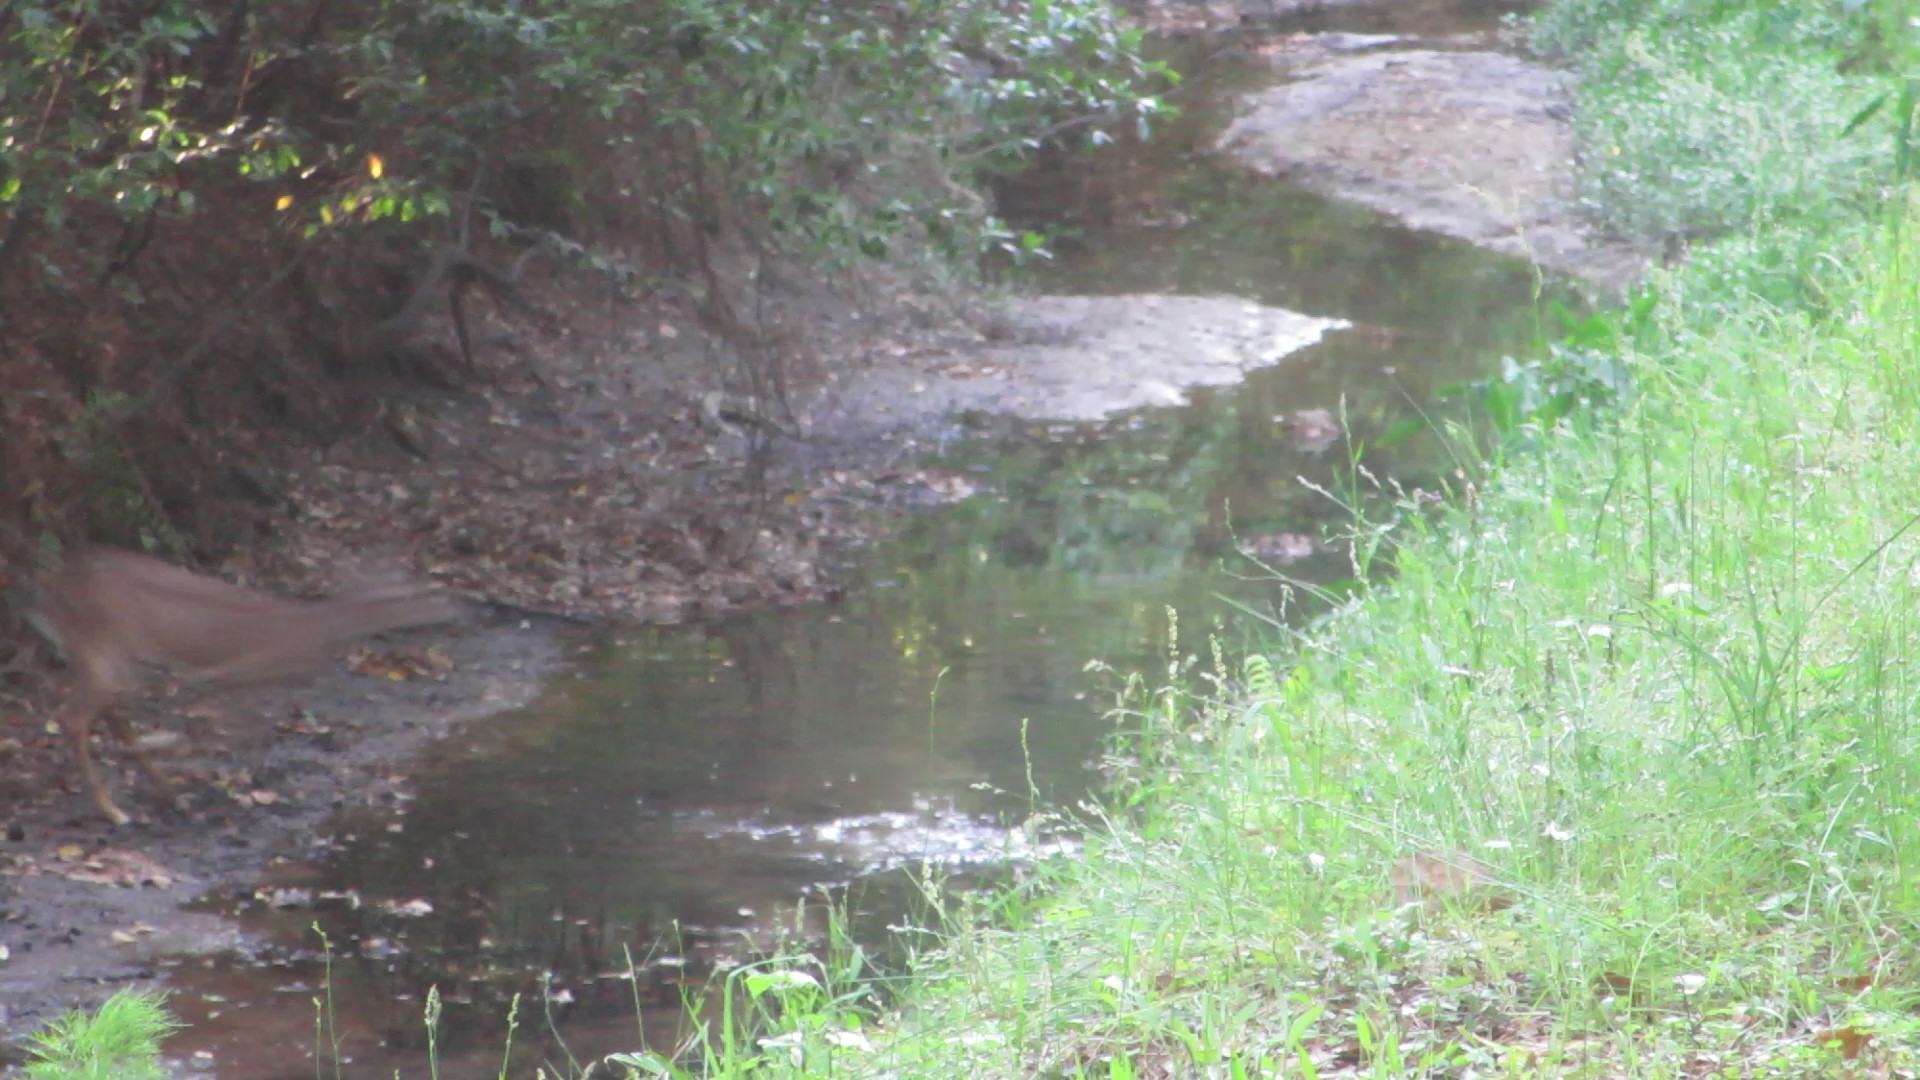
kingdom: Animalia
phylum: Chordata
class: Mammalia
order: Artiodactyla
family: Cervidae
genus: Odocoileus
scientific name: Odocoileus virginianus
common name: White-tailed deer
